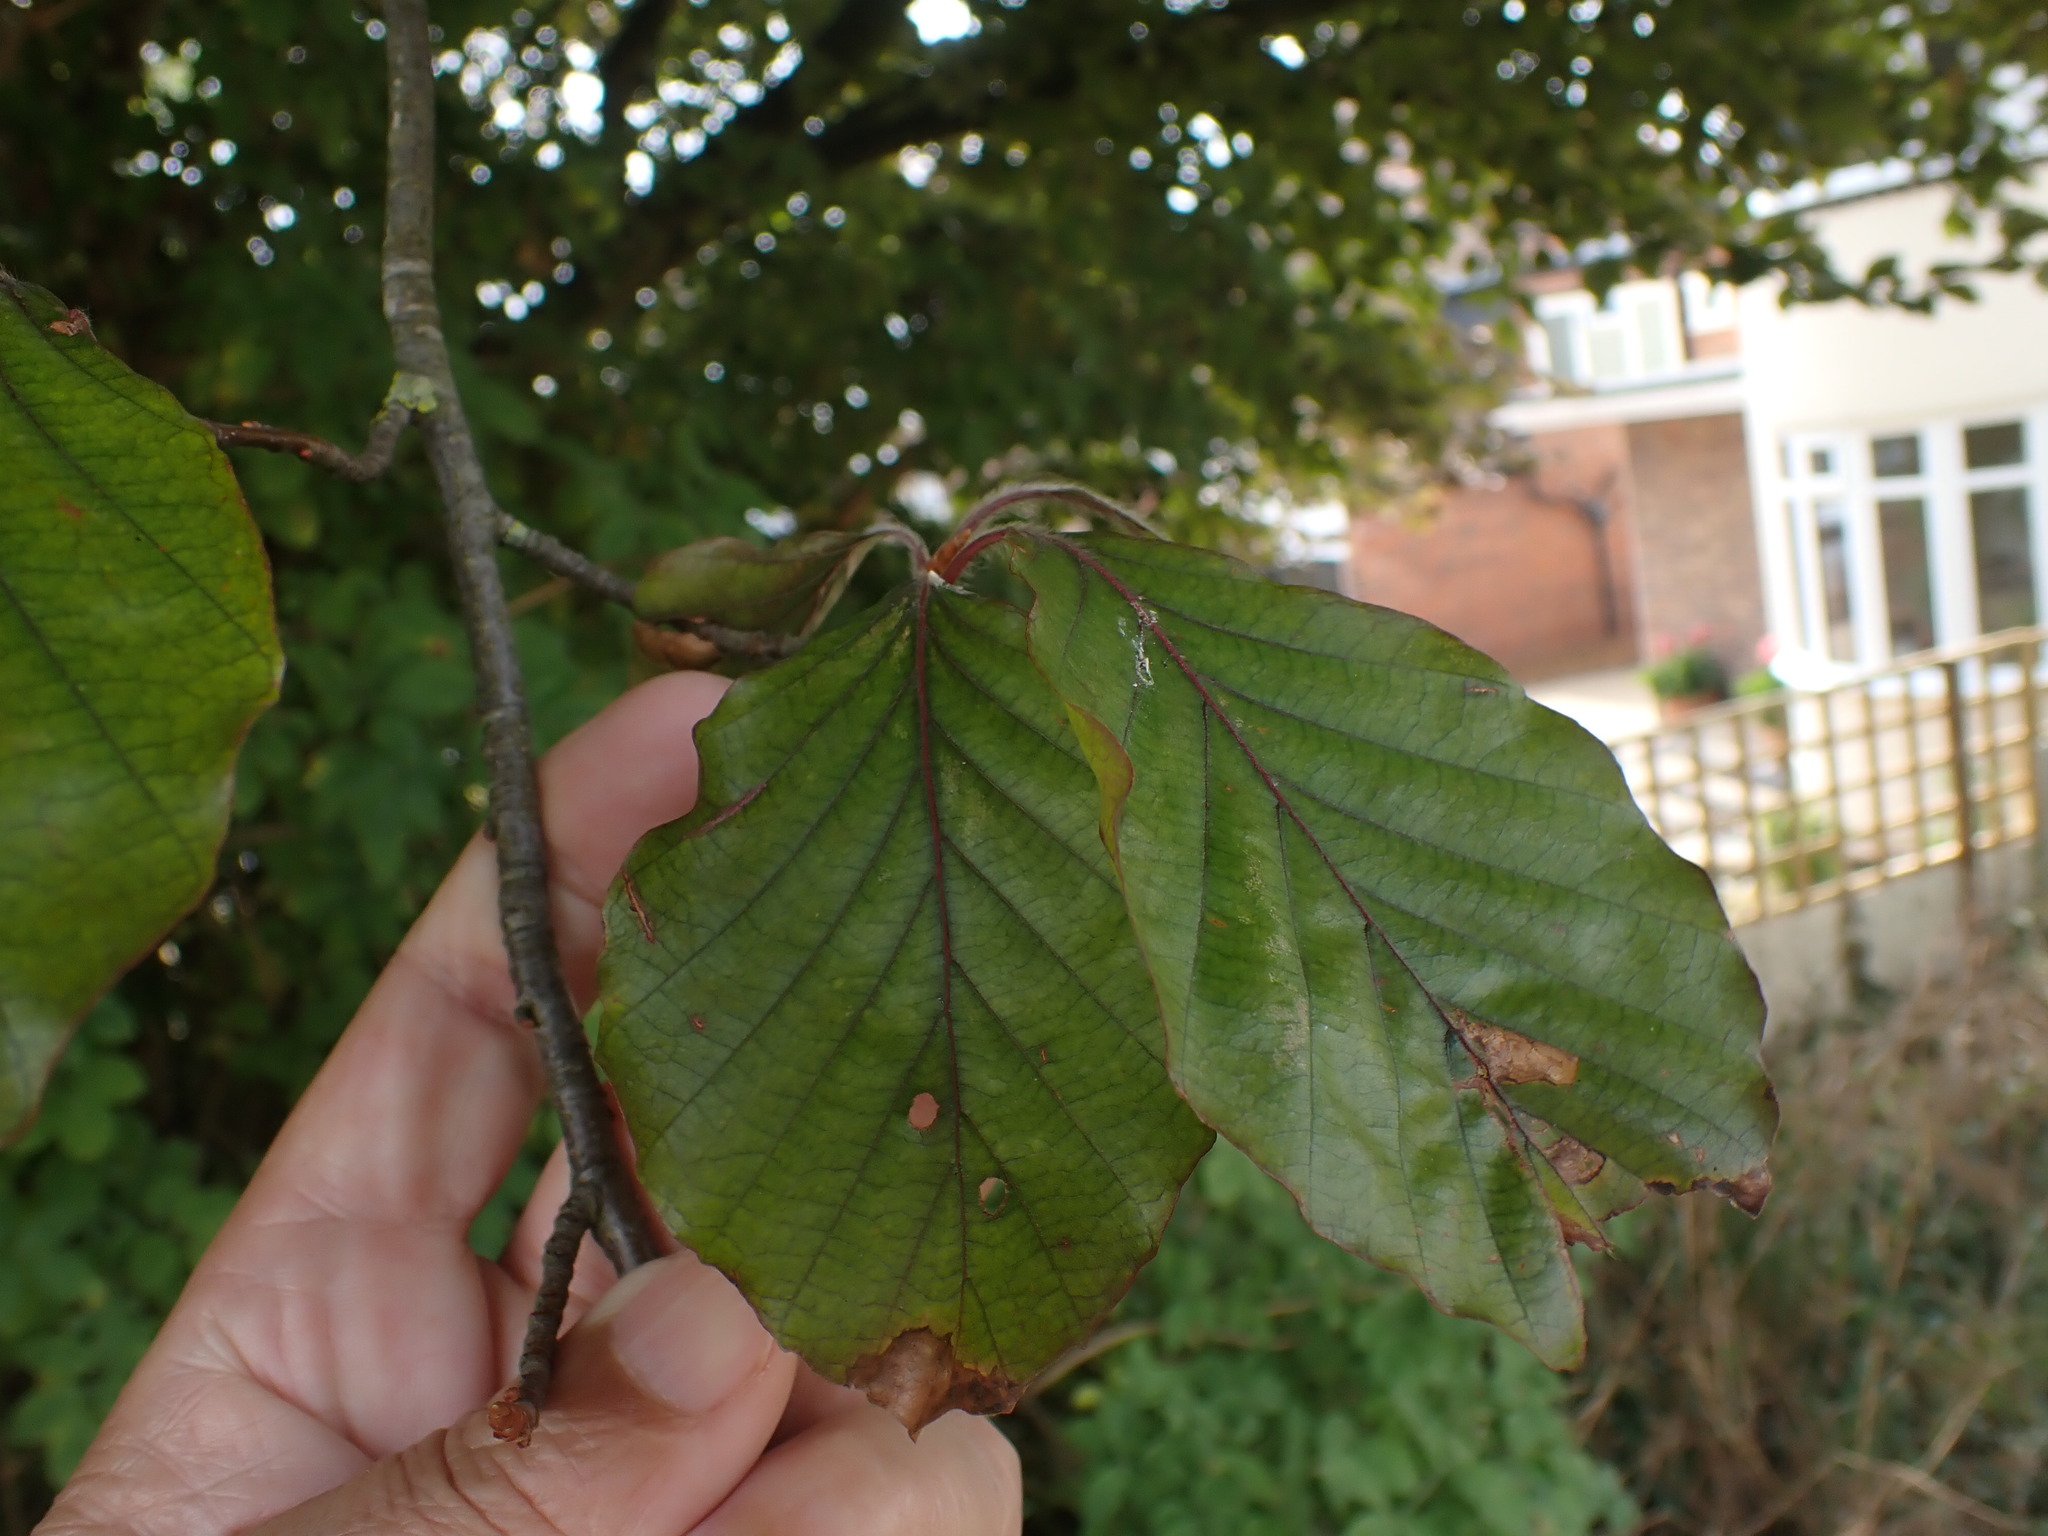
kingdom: Plantae
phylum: Tracheophyta
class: Magnoliopsida
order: Fagales
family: Fagaceae
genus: Fagus
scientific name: Fagus sylvatica
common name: Beech
